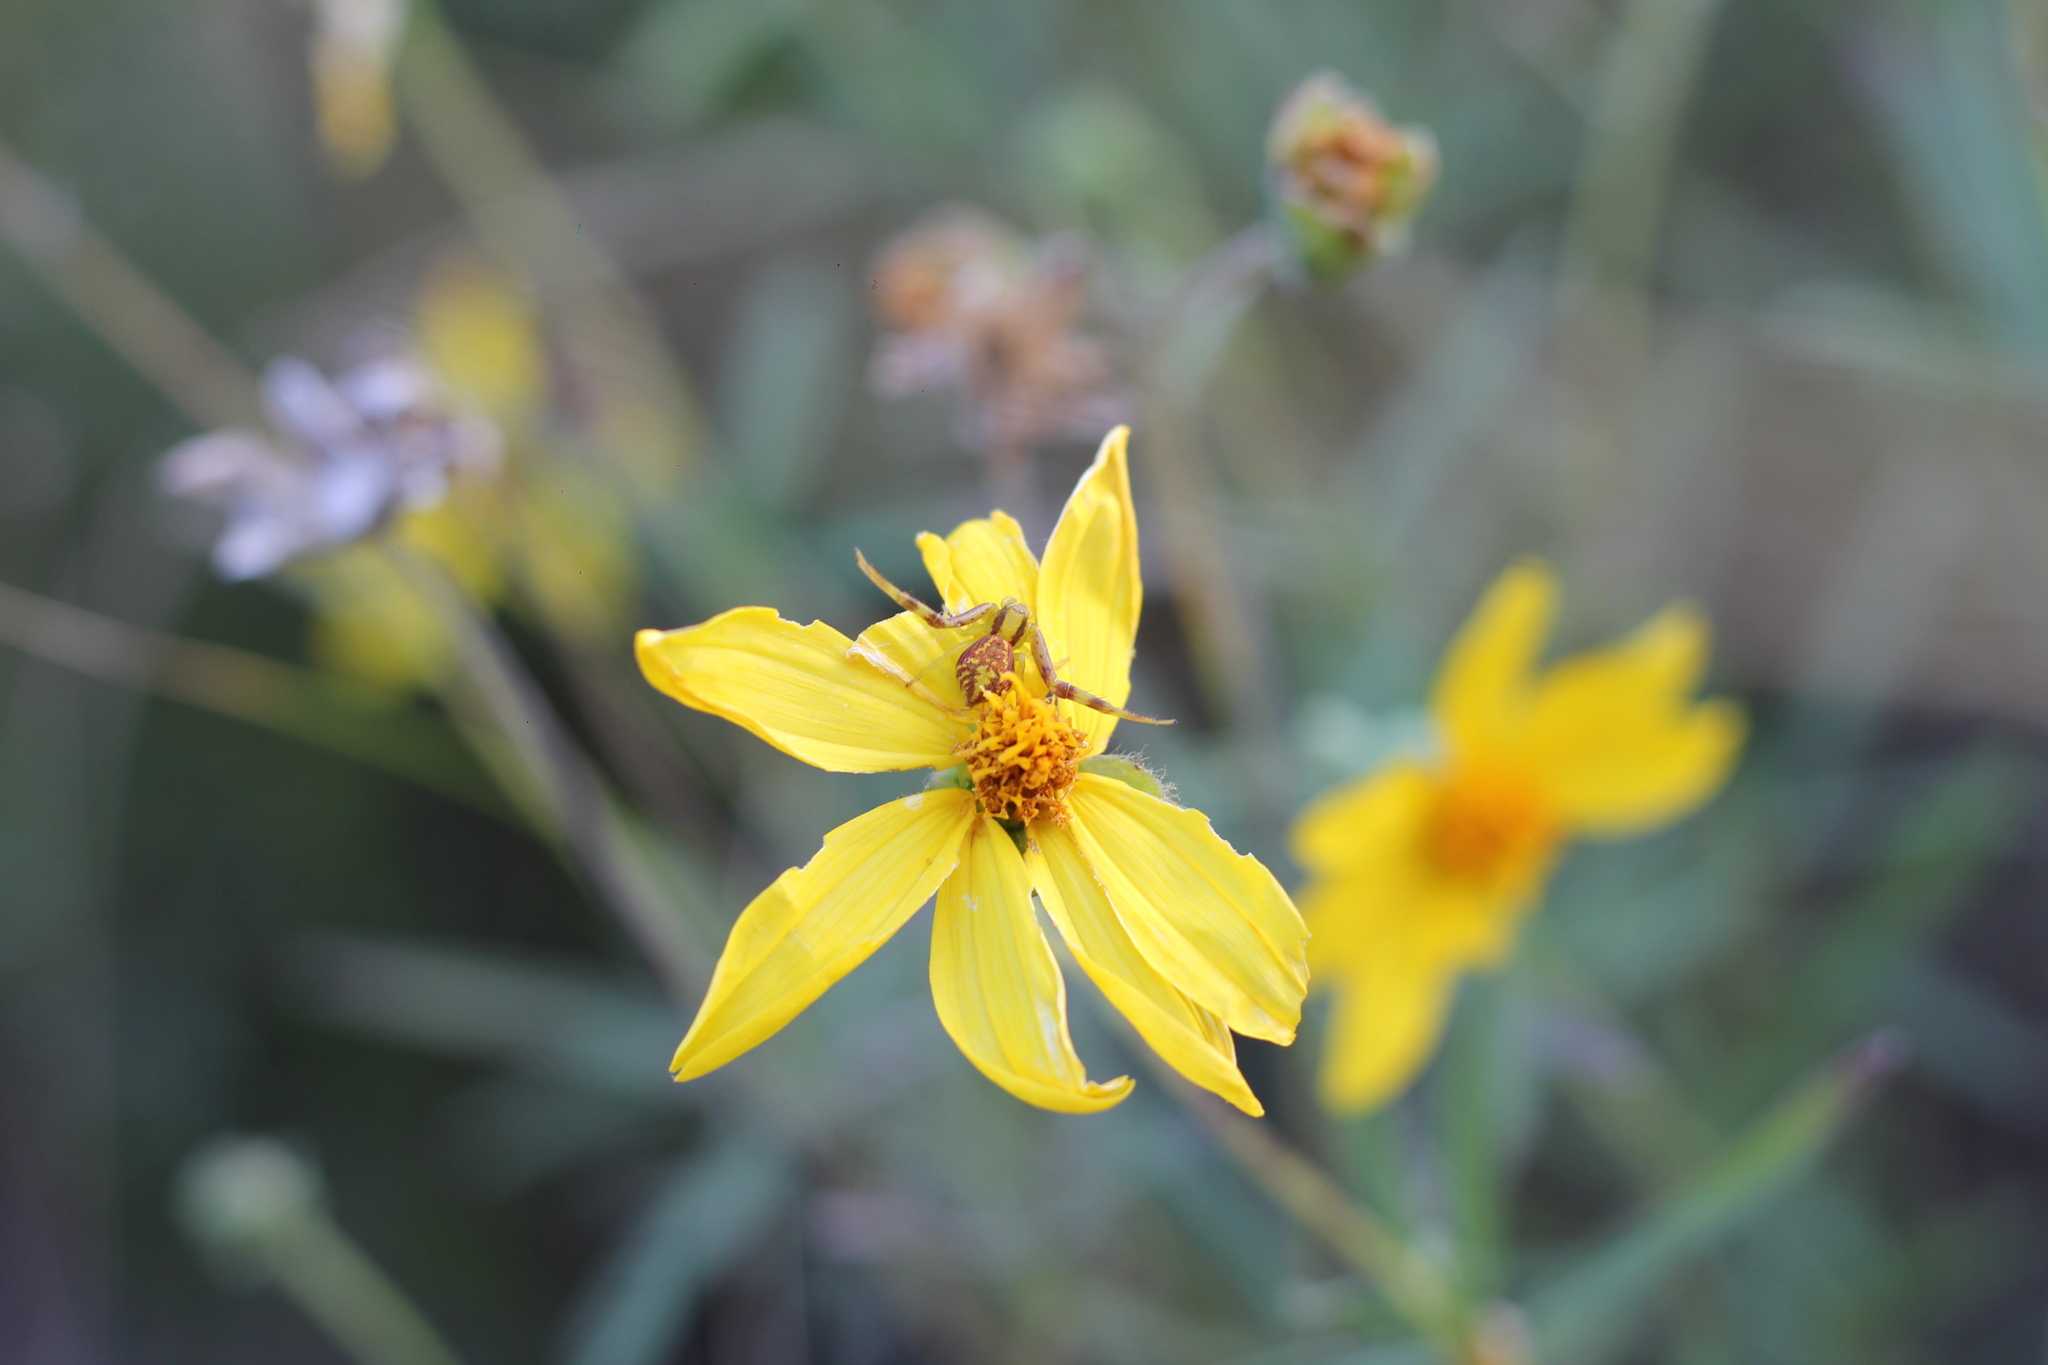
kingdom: Animalia
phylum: Arthropoda
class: Arachnida
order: Araneae
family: Thomisidae
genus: Misumenops
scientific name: Misumenops
